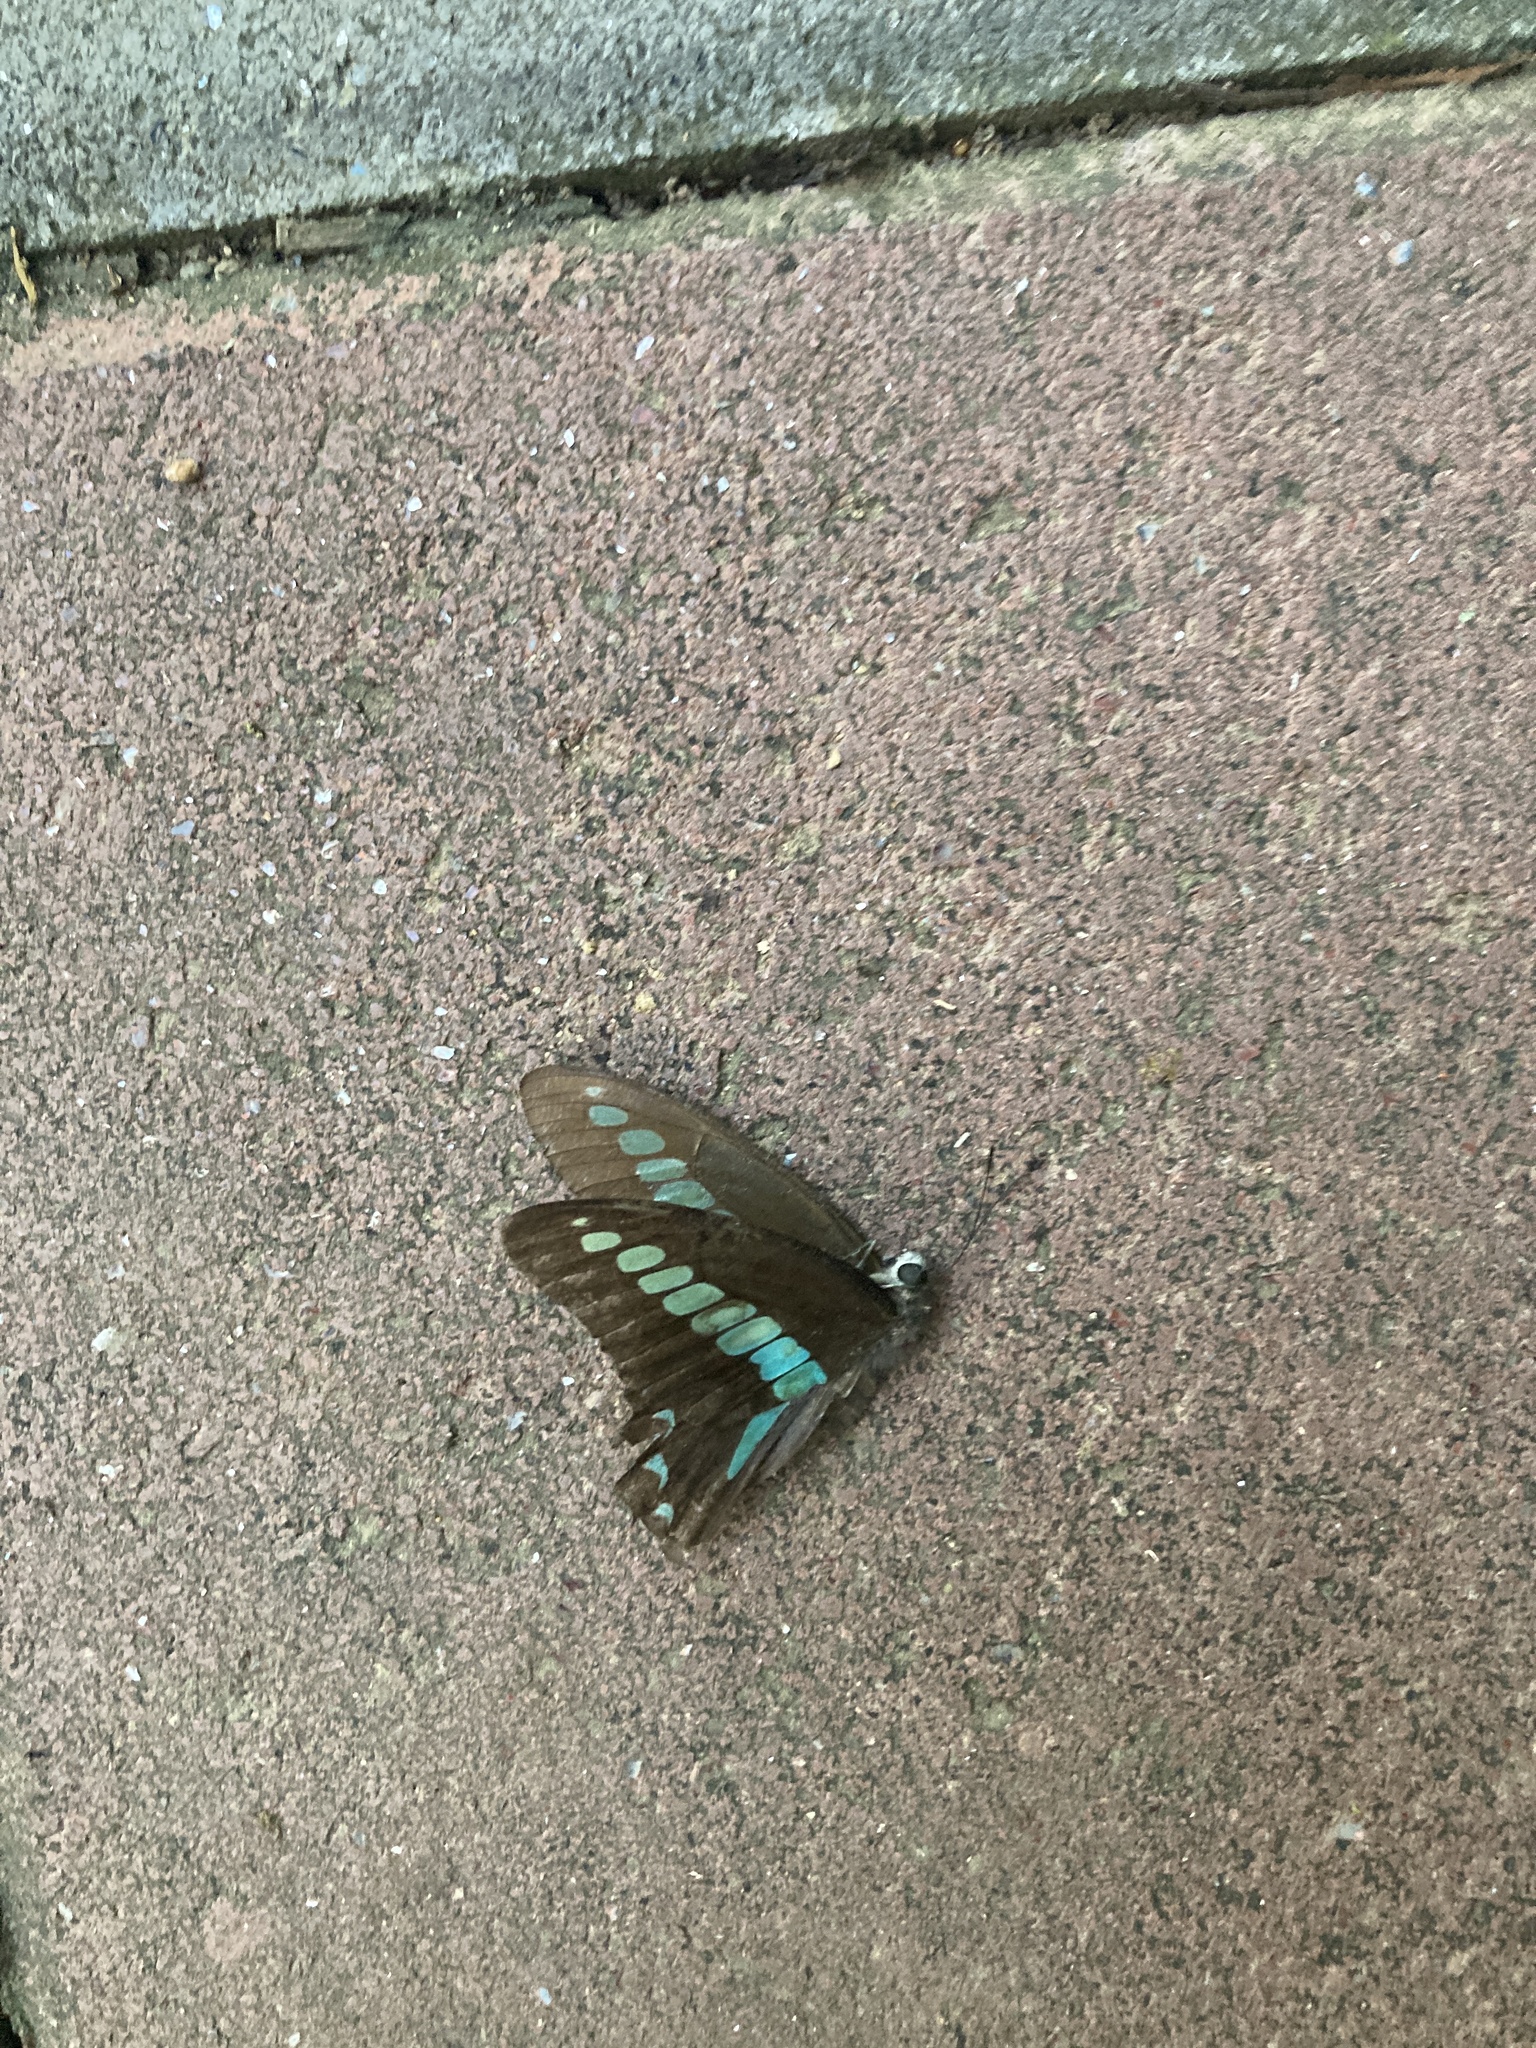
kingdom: Fungi
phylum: Ascomycota
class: Sordariomycetes
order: Microascales
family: Microascaceae
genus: Graphium
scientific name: Graphium sarpedon
